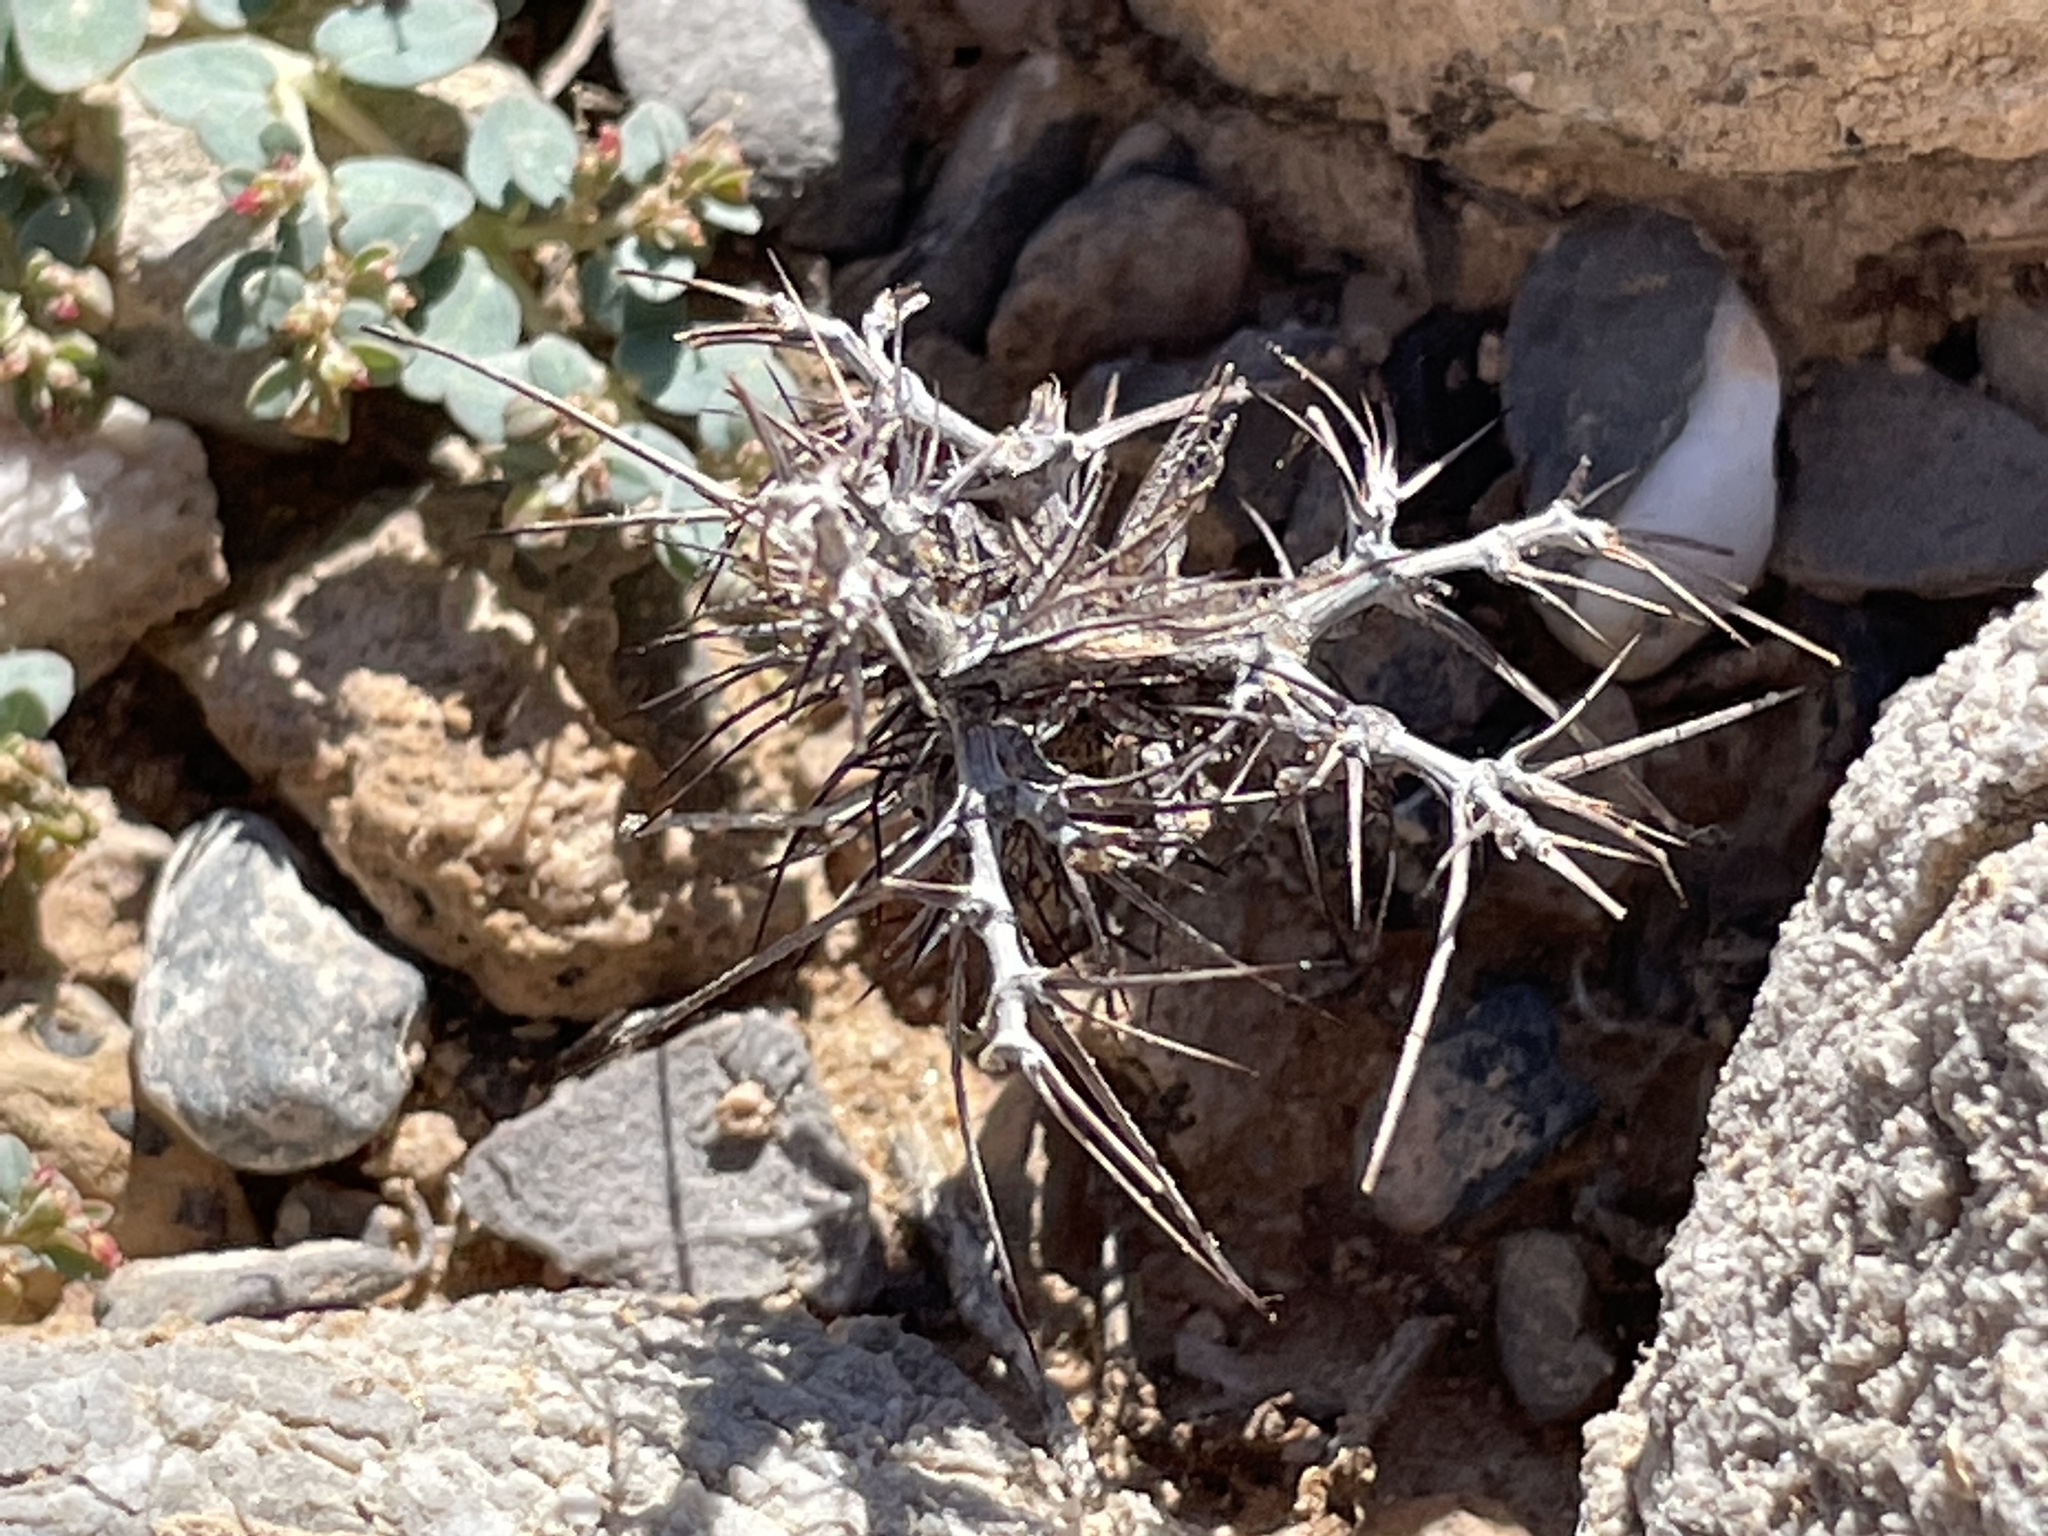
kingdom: Plantae
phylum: Tracheophyta
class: Magnoliopsida
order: Caryophyllales
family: Polygonaceae
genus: Chorizanthe
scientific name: Chorizanthe rigida
